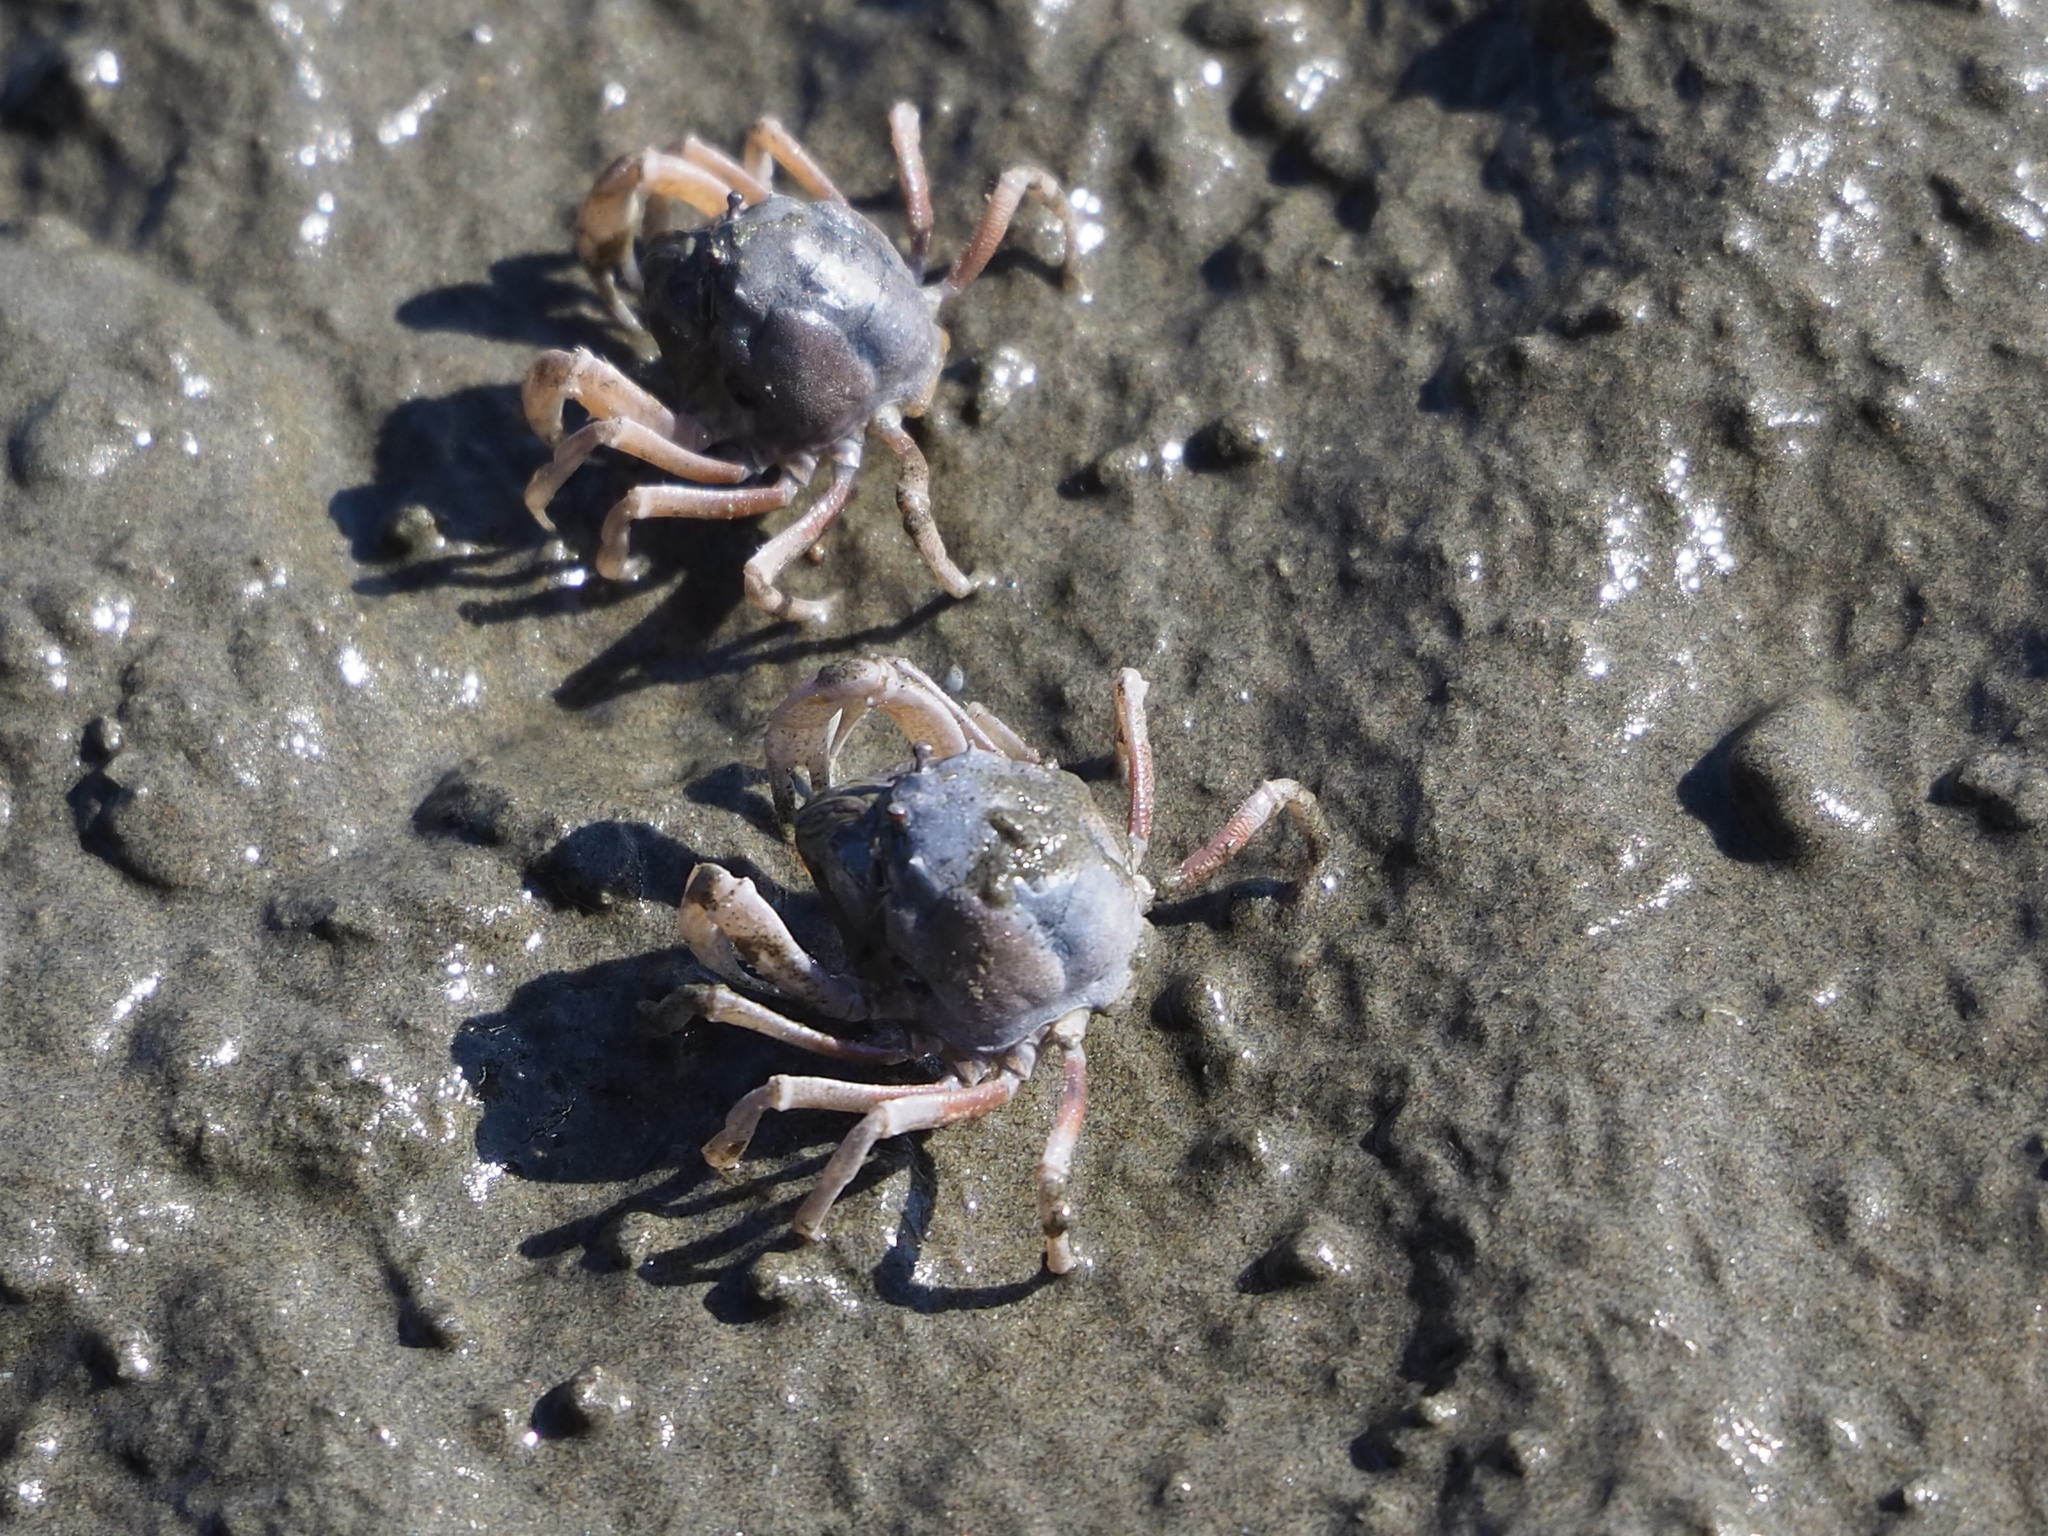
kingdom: Animalia
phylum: Arthropoda
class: Malacostraca
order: Decapoda
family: Mictyridae
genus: Mictyris
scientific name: Mictyris brevidactylus
